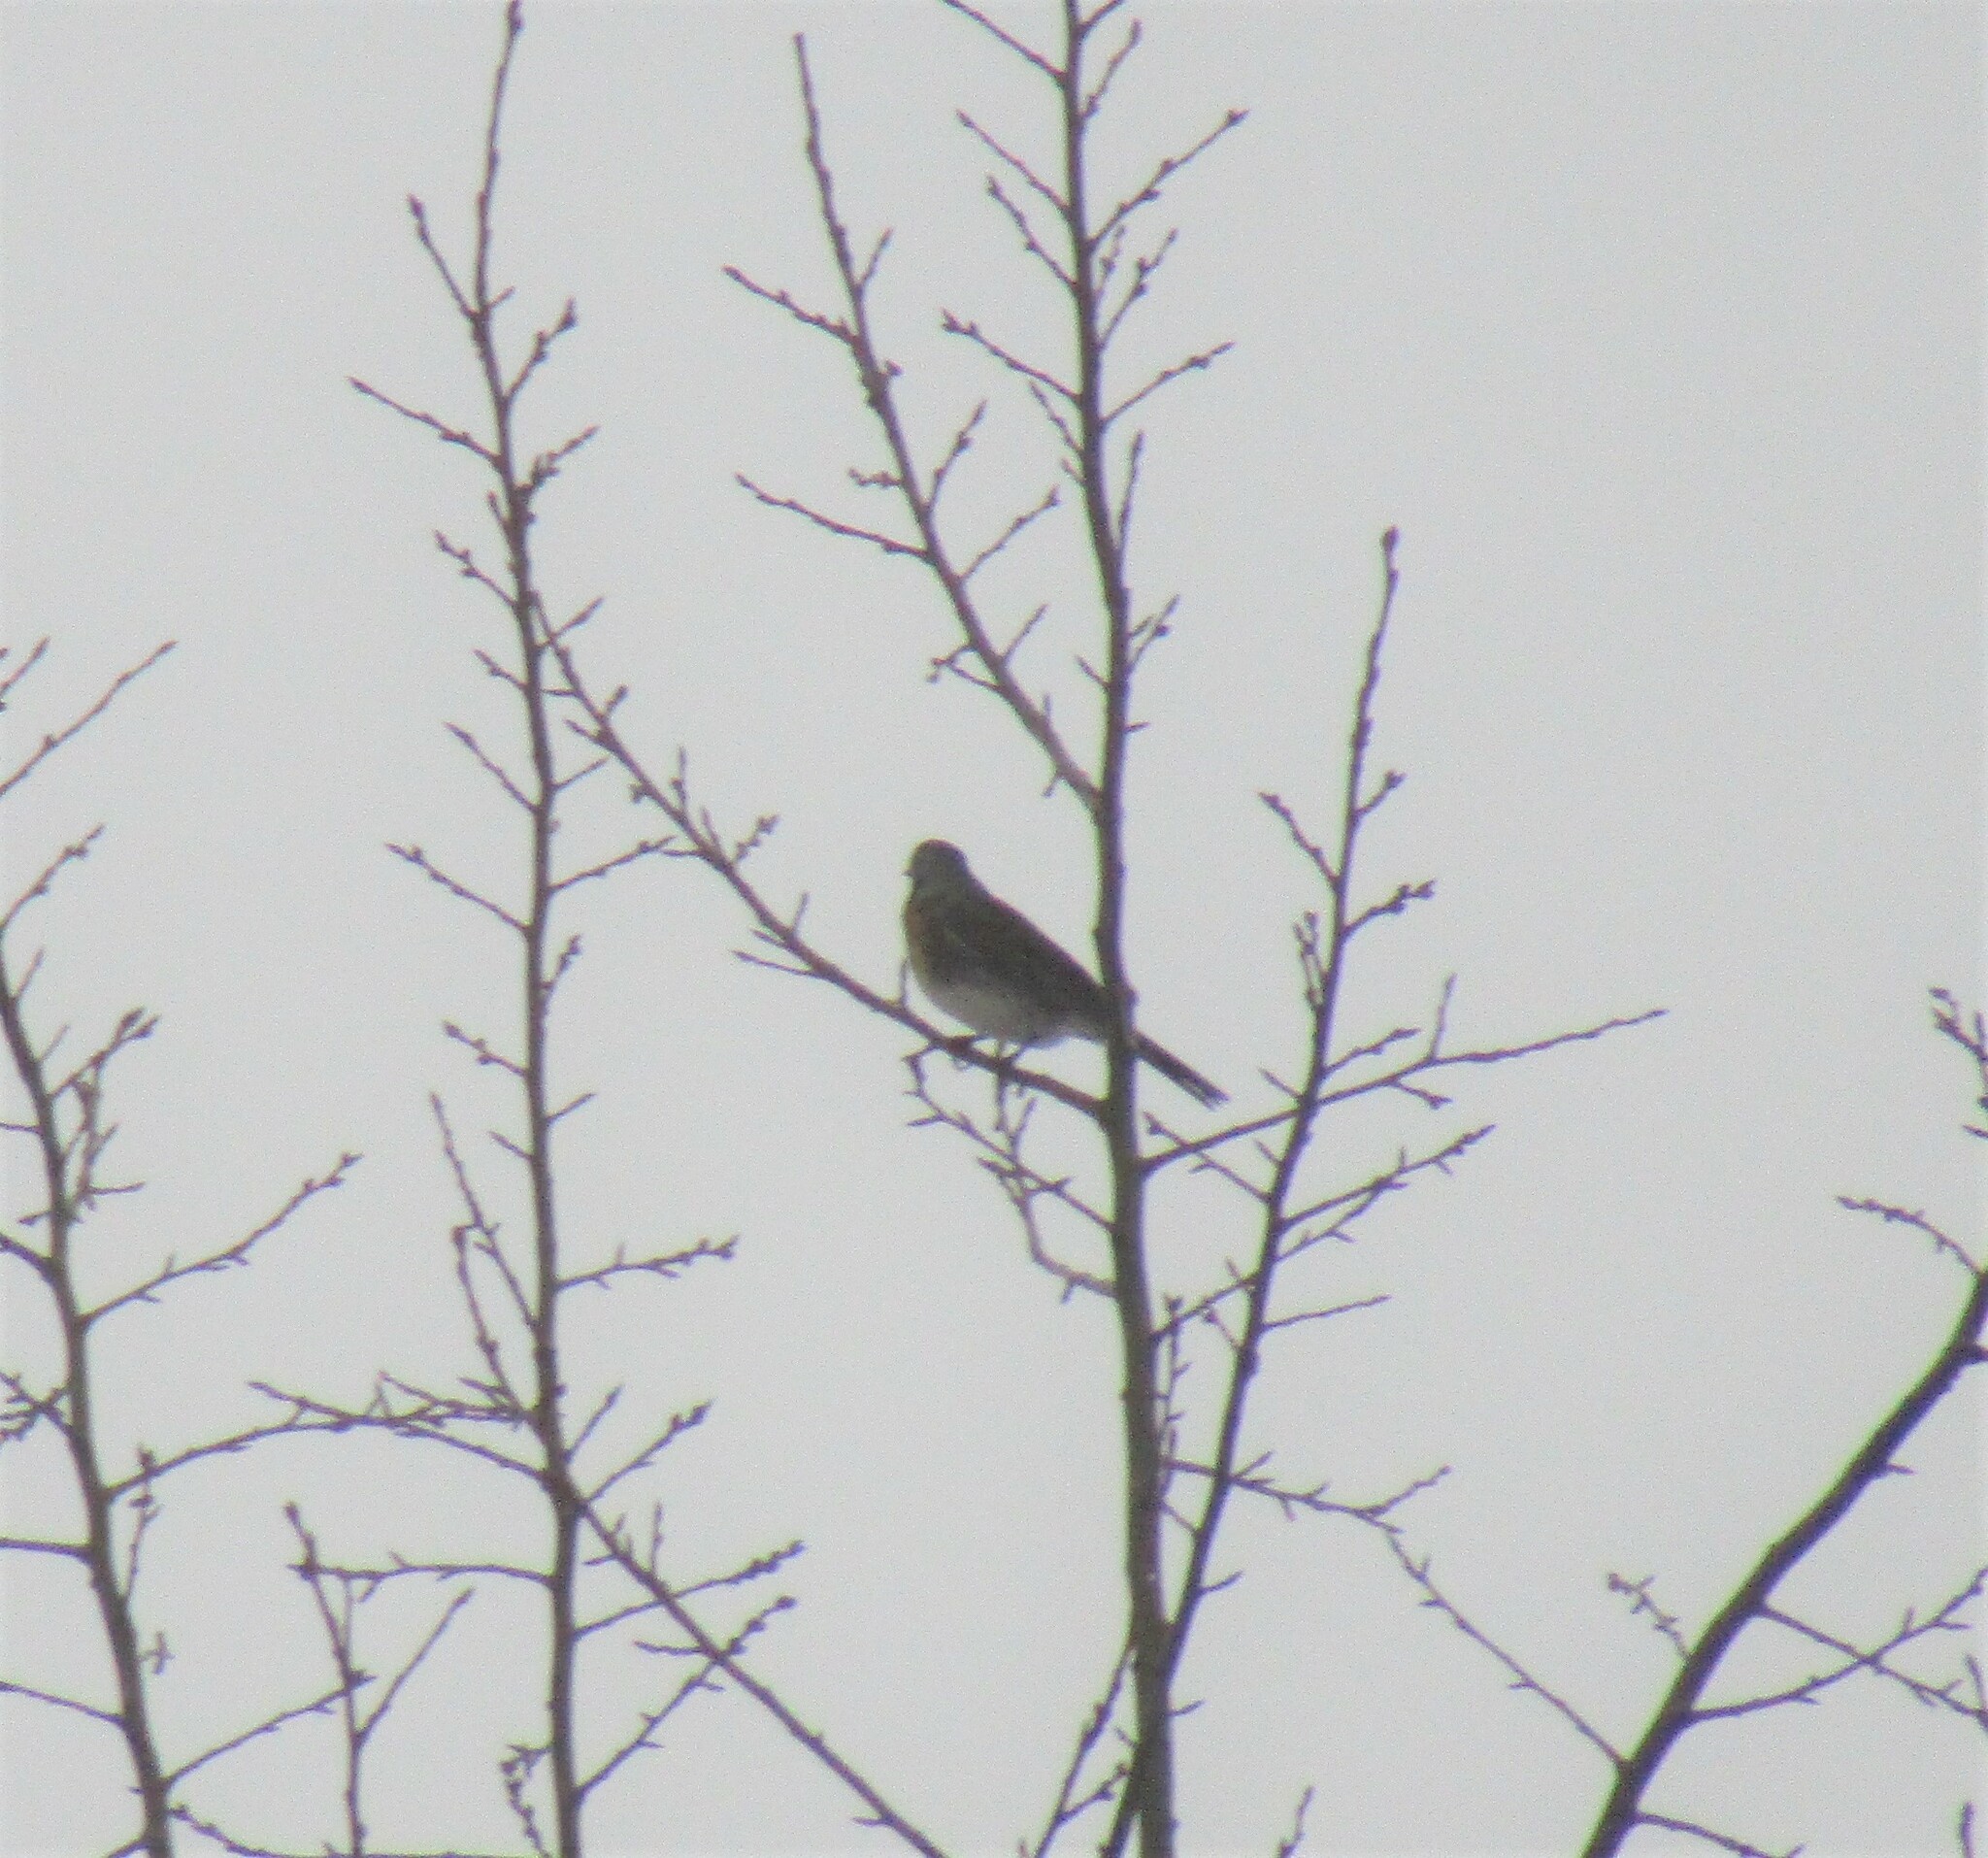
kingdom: Animalia
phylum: Chordata
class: Aves
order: Passeriformes
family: Turdidae
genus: Turdus
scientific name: Turdus pilaris
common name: Fieldfare
